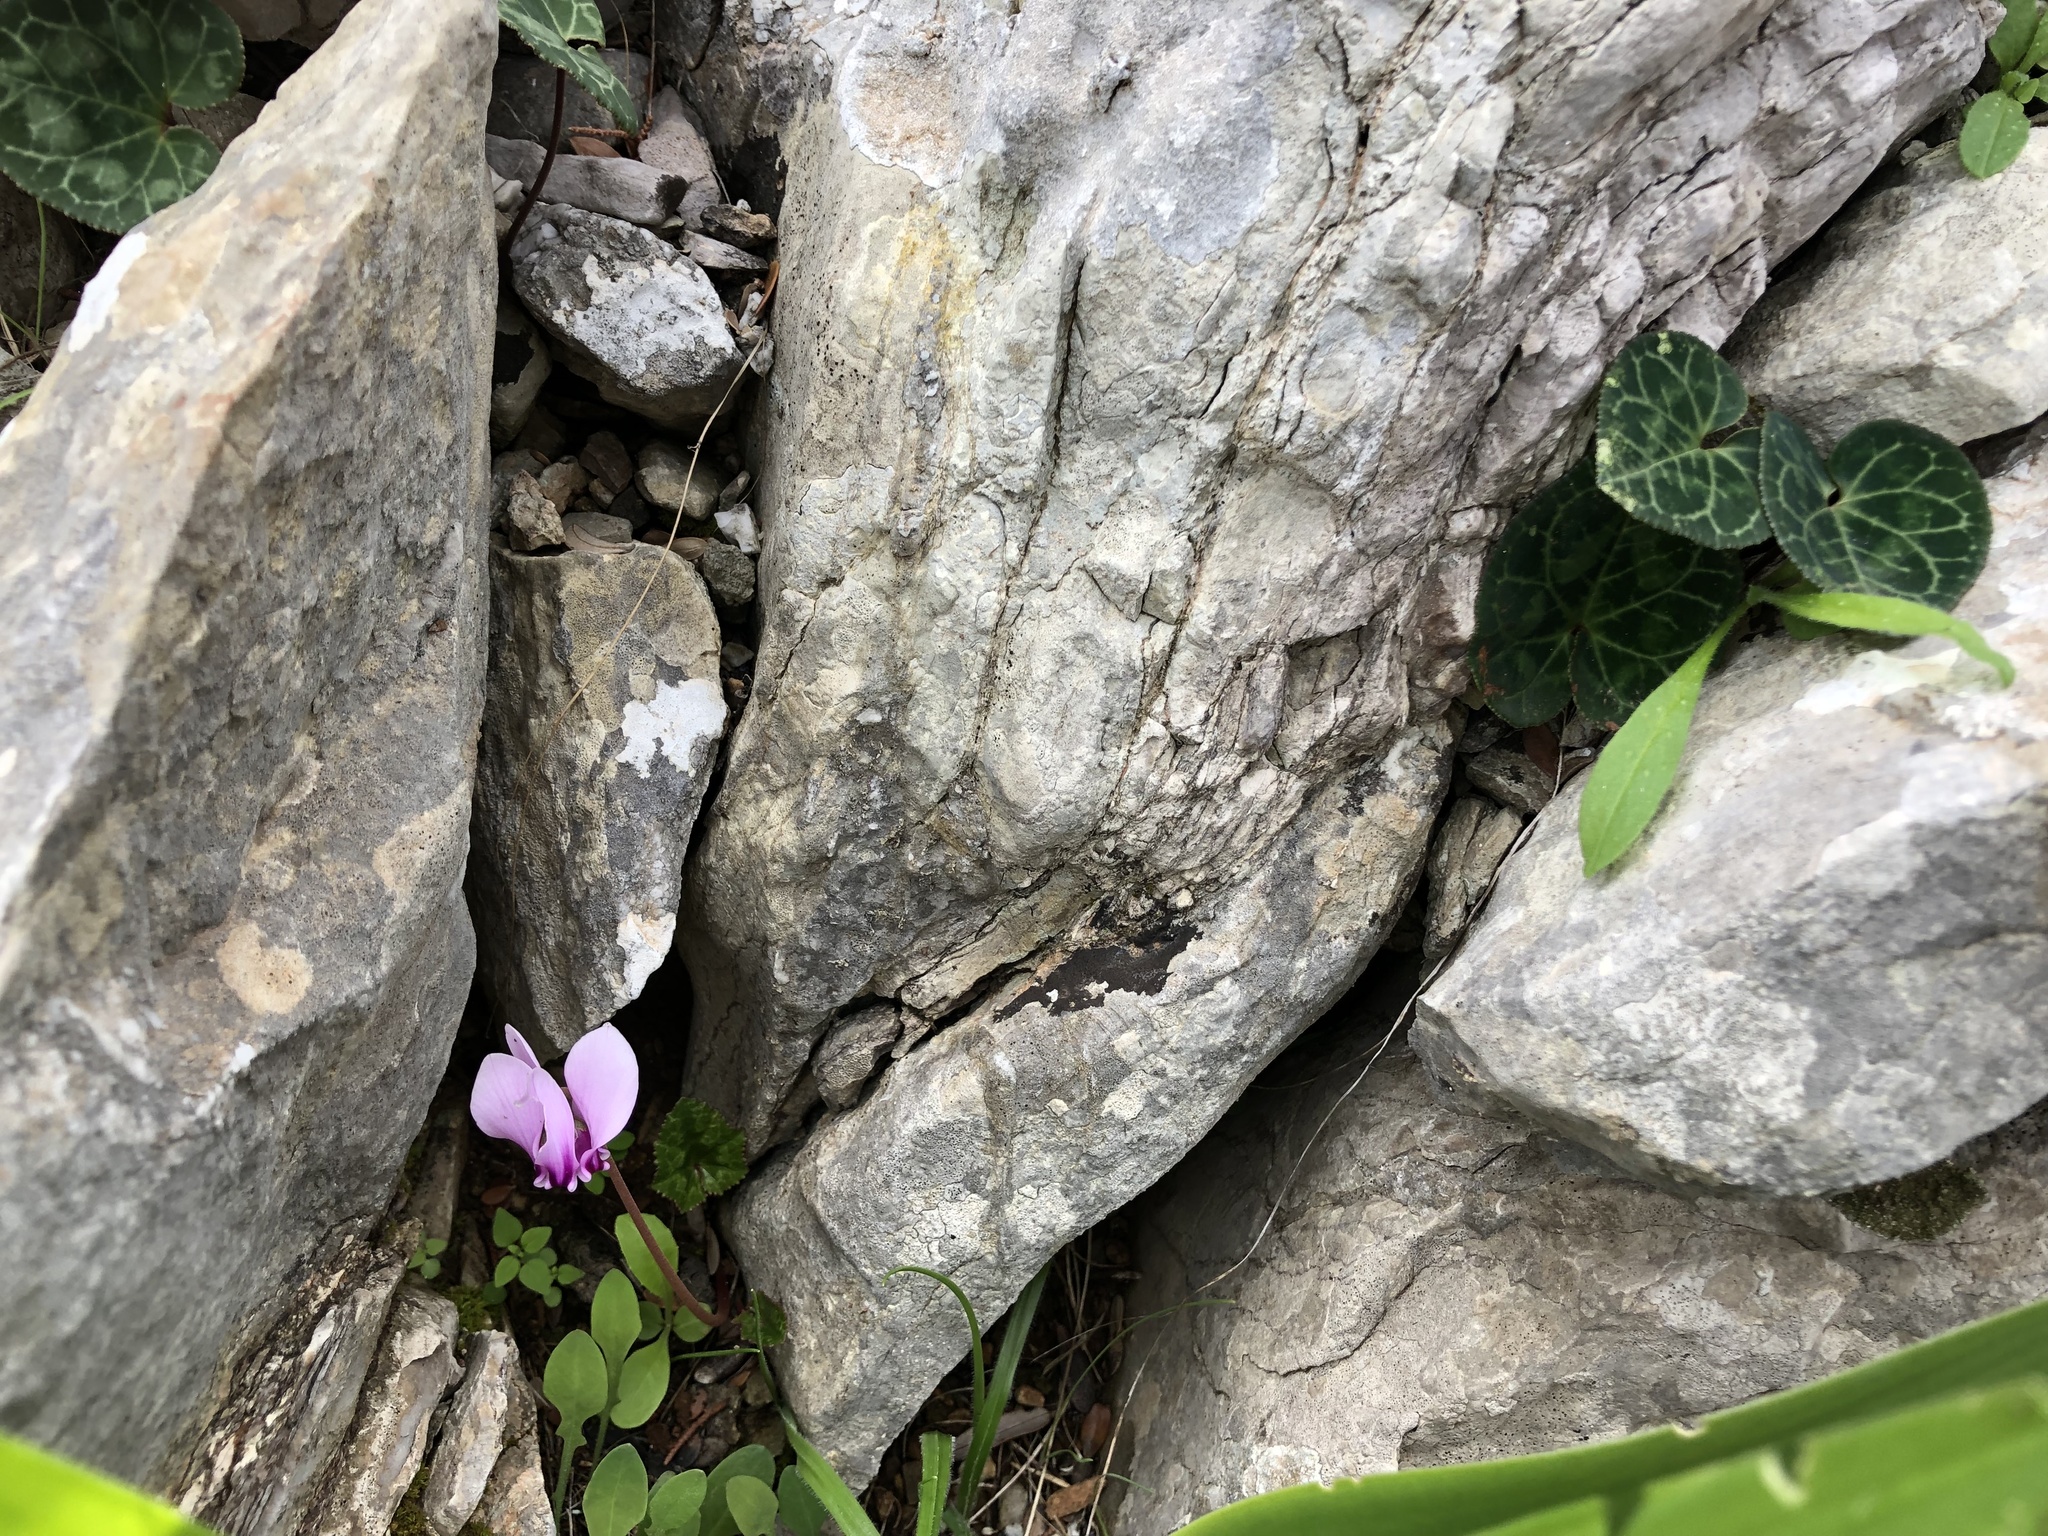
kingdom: Plantae
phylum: Tracheophyta
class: Magnoliopsida
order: Ericales
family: Primulaceae
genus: Cyclamen
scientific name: Cyclamen hederifolium
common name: Sowbread
